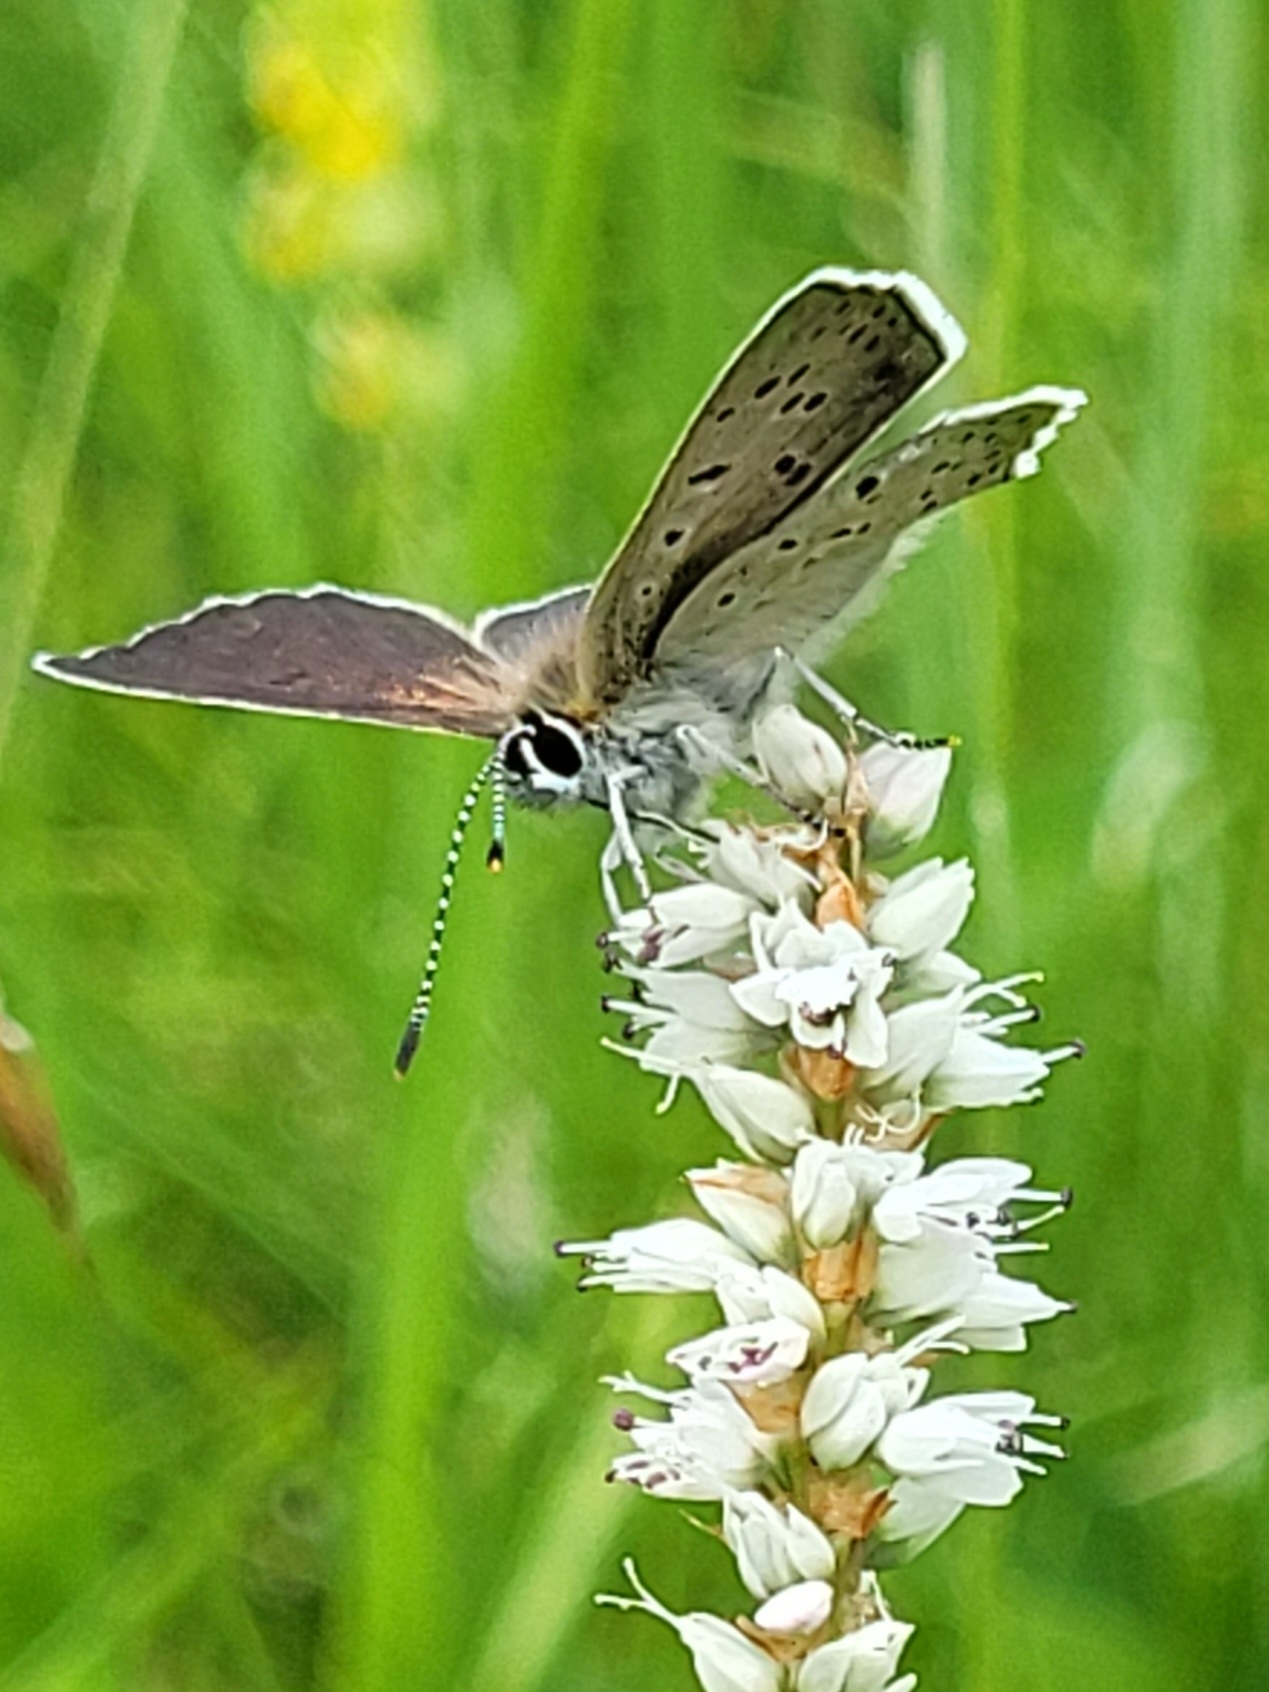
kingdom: Animalia
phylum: Arthropoda
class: Insecta
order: Lepidoptera
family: Lycaenidae
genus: Loweia
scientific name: Loweia tityrus
